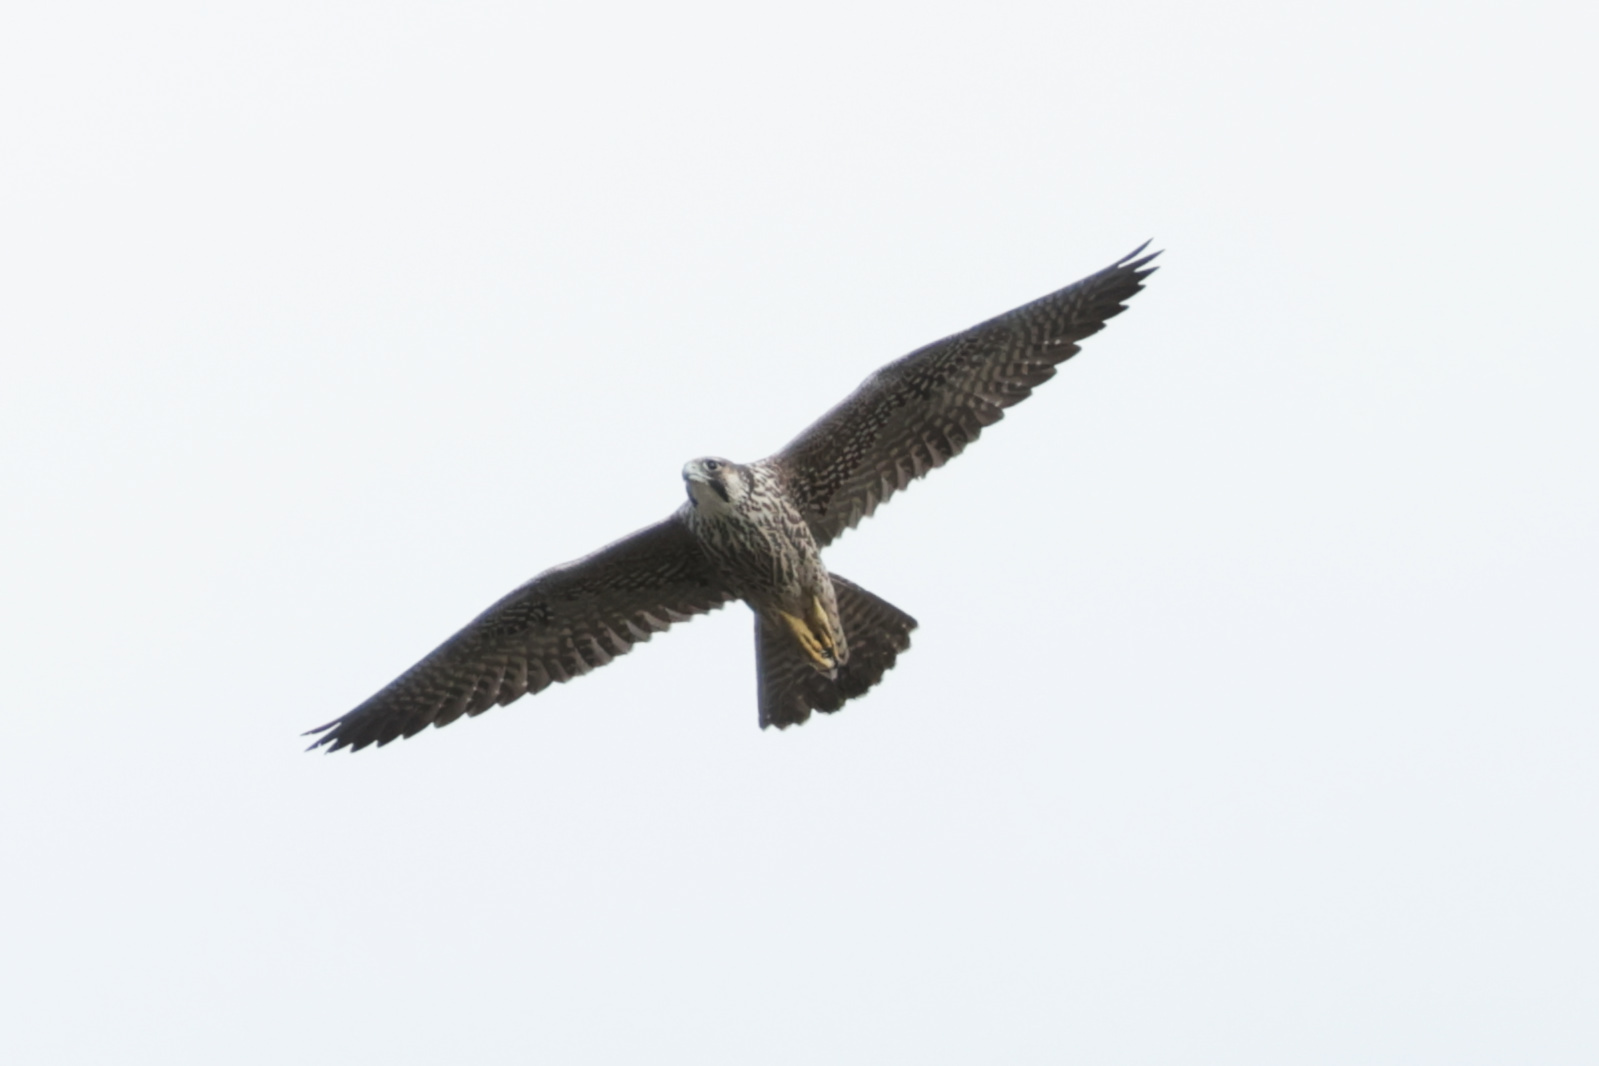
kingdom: Animalia
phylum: Chordata
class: Aves
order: Falconiformes
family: Falconidae
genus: Falco
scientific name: Falco peregrinus
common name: Peregrine falcon
